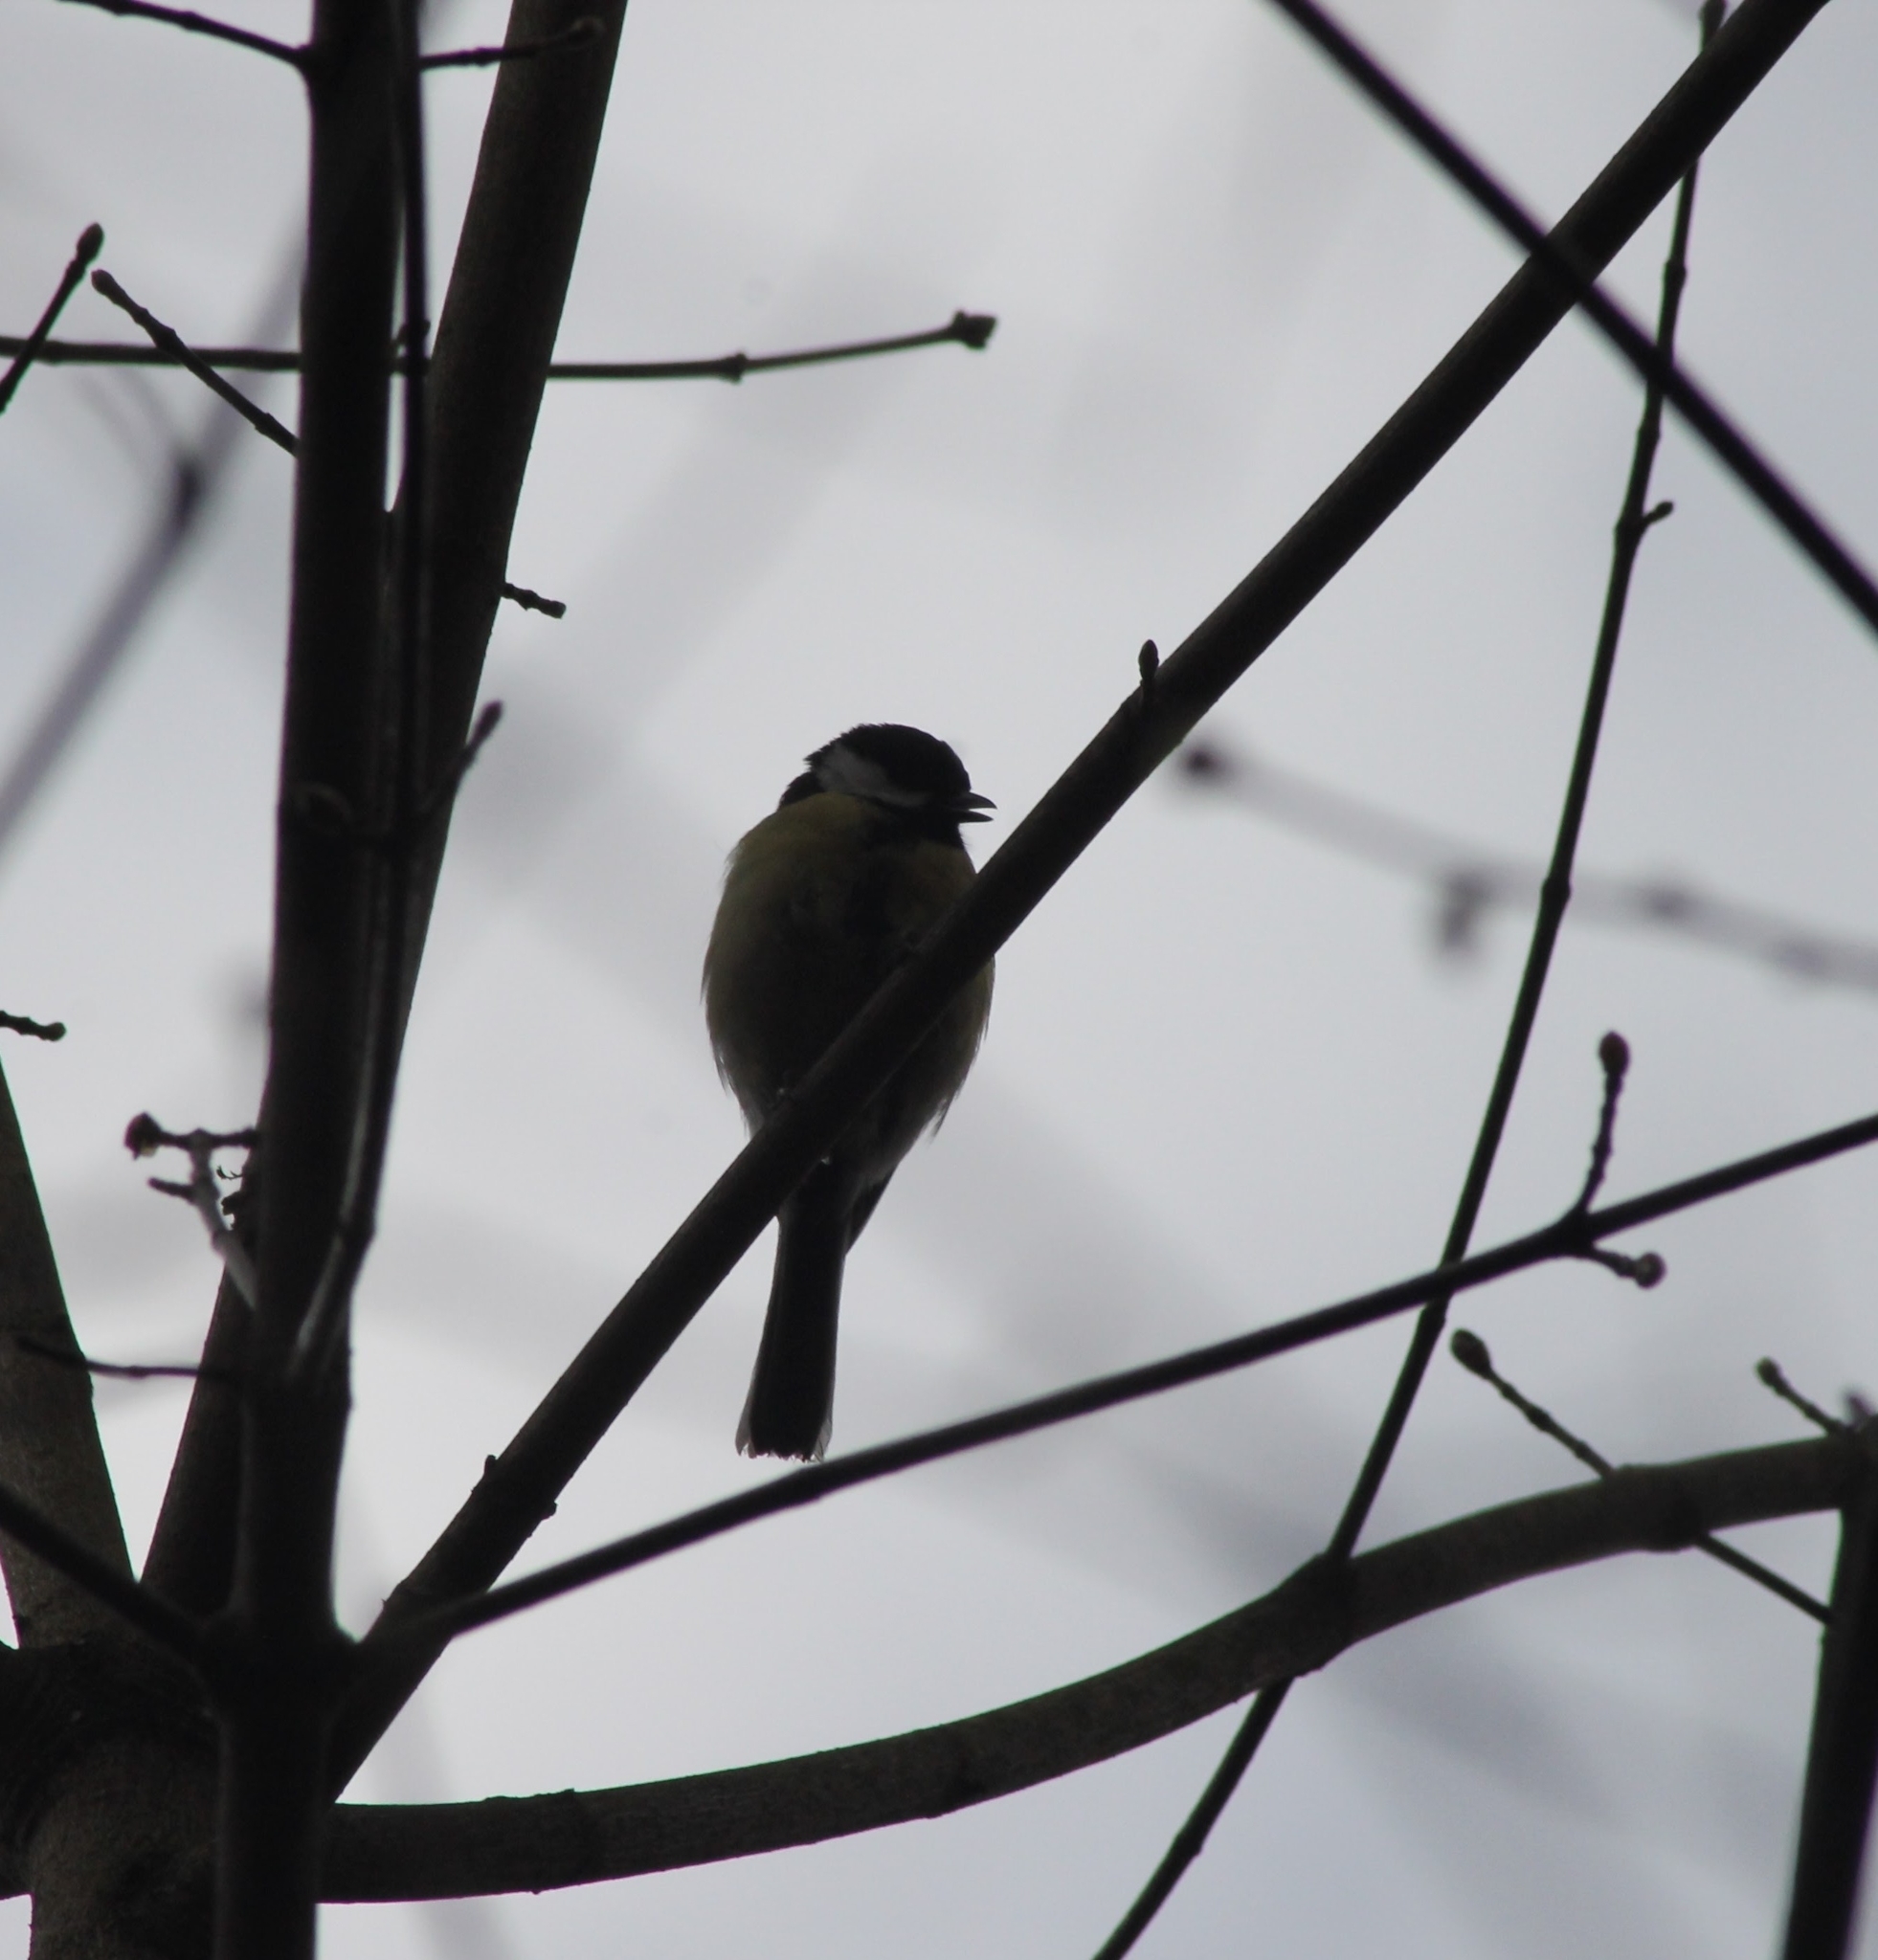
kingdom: Animalia
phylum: Chordata
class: Aves
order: Passeriformes
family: Paridae
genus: Parus
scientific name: Parus major
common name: Great tit
